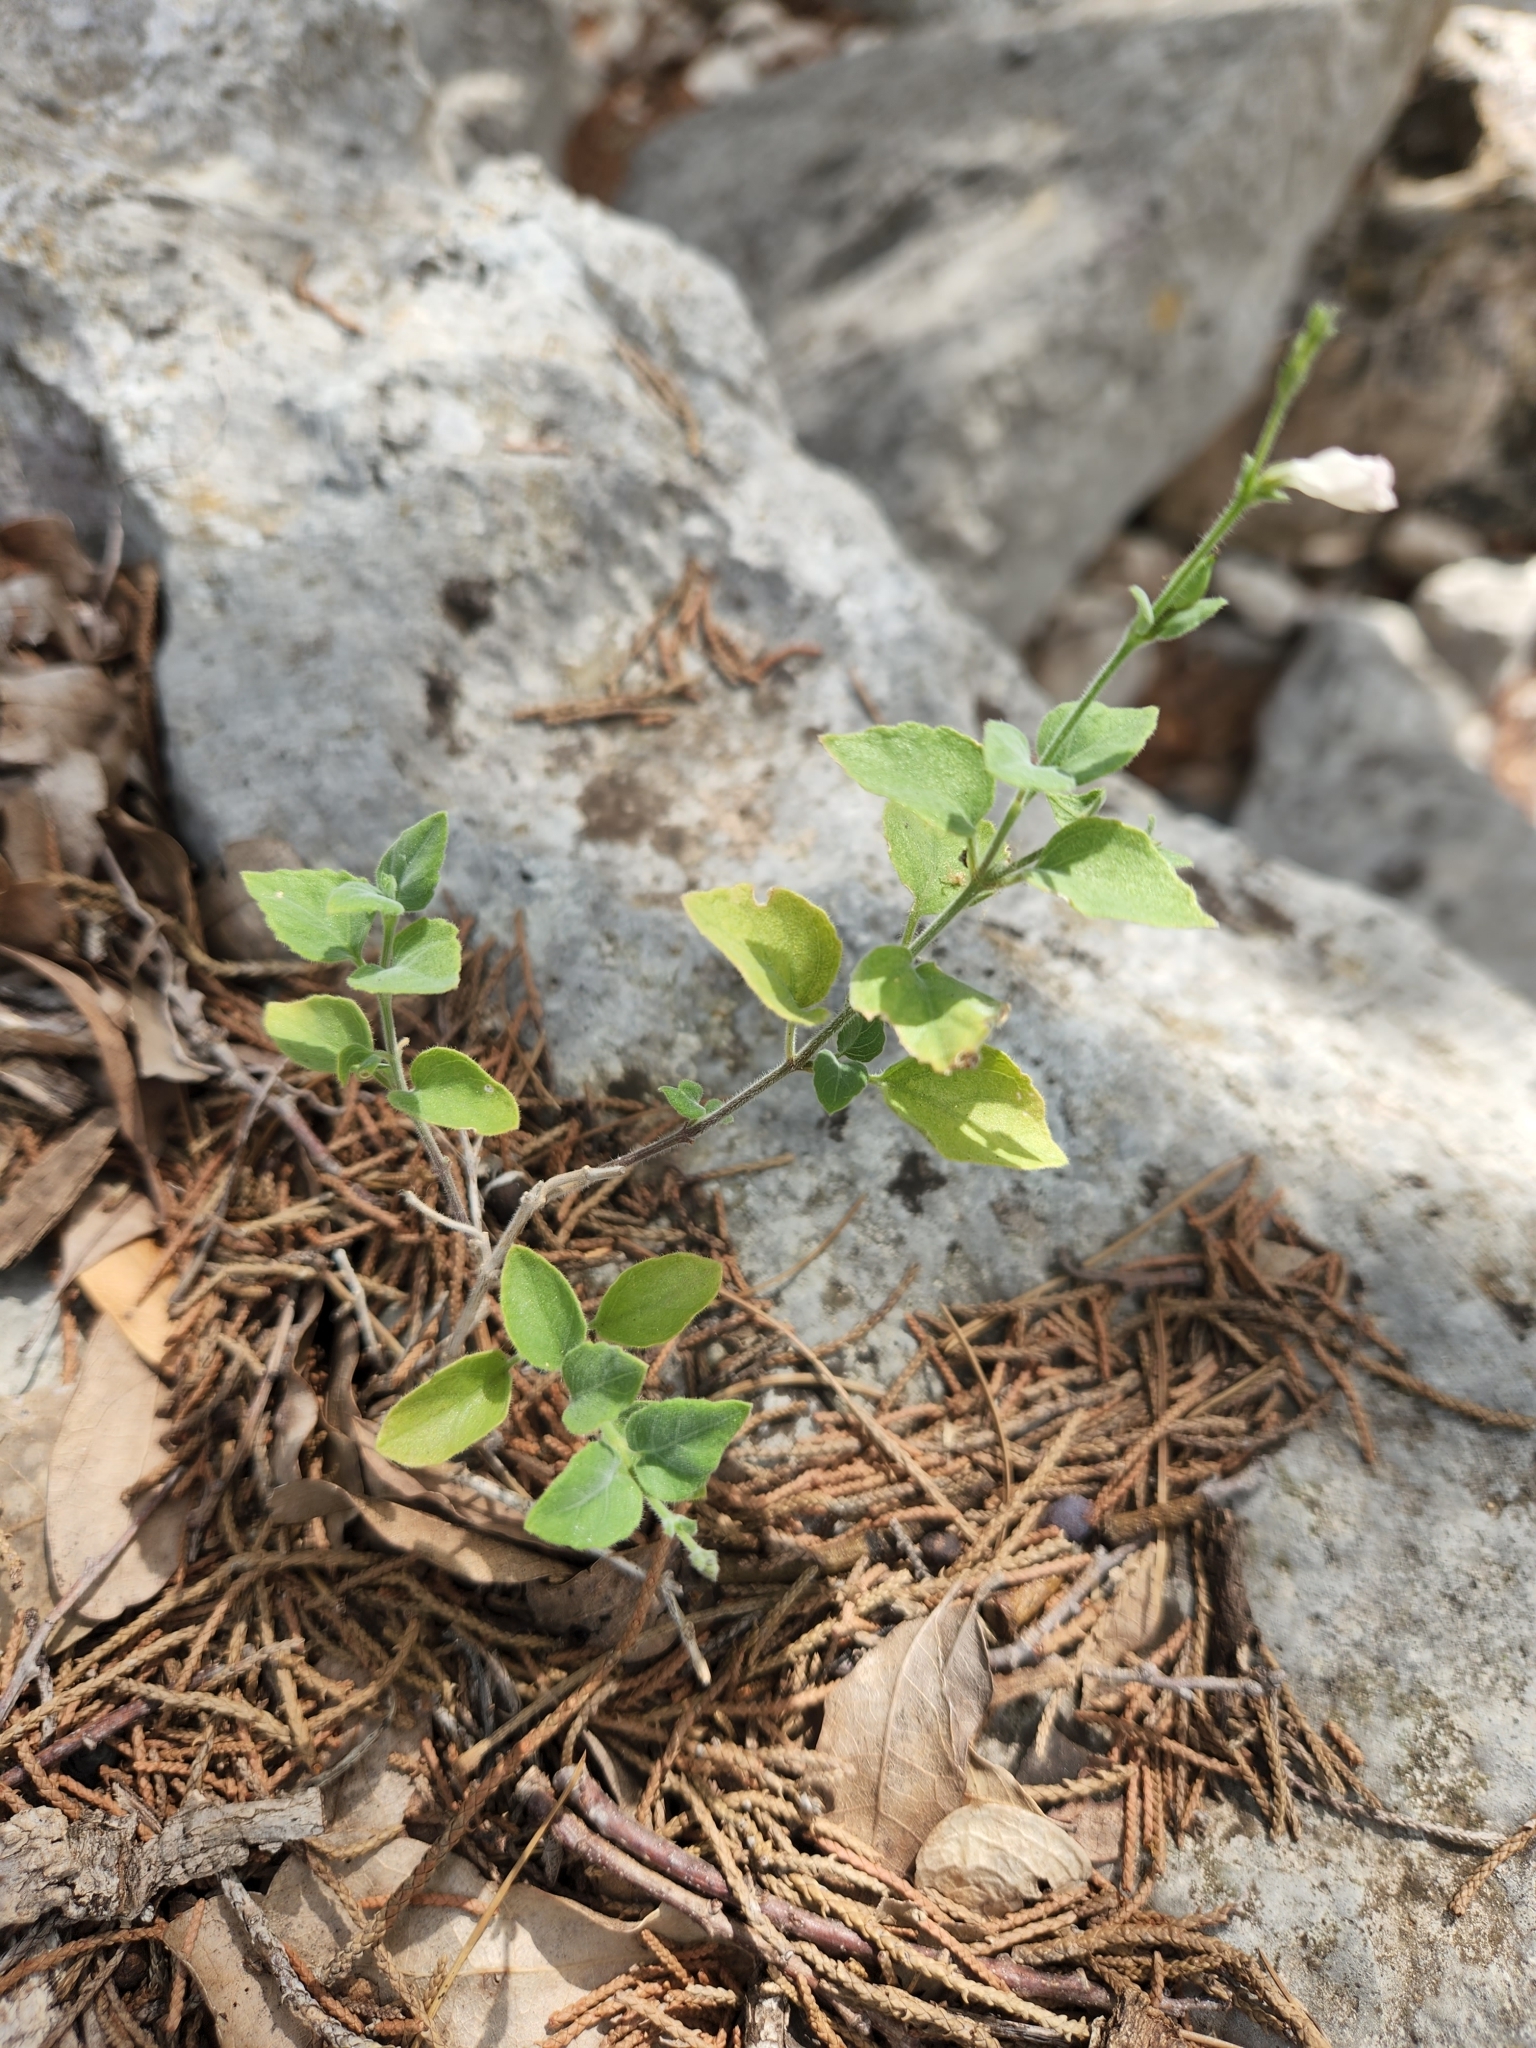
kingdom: Plantae
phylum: Tracheophyta
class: Magnoliopsida
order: Lamiales
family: Acanthaceae
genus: Carlowrightia
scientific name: Carlowrightia torreyana
